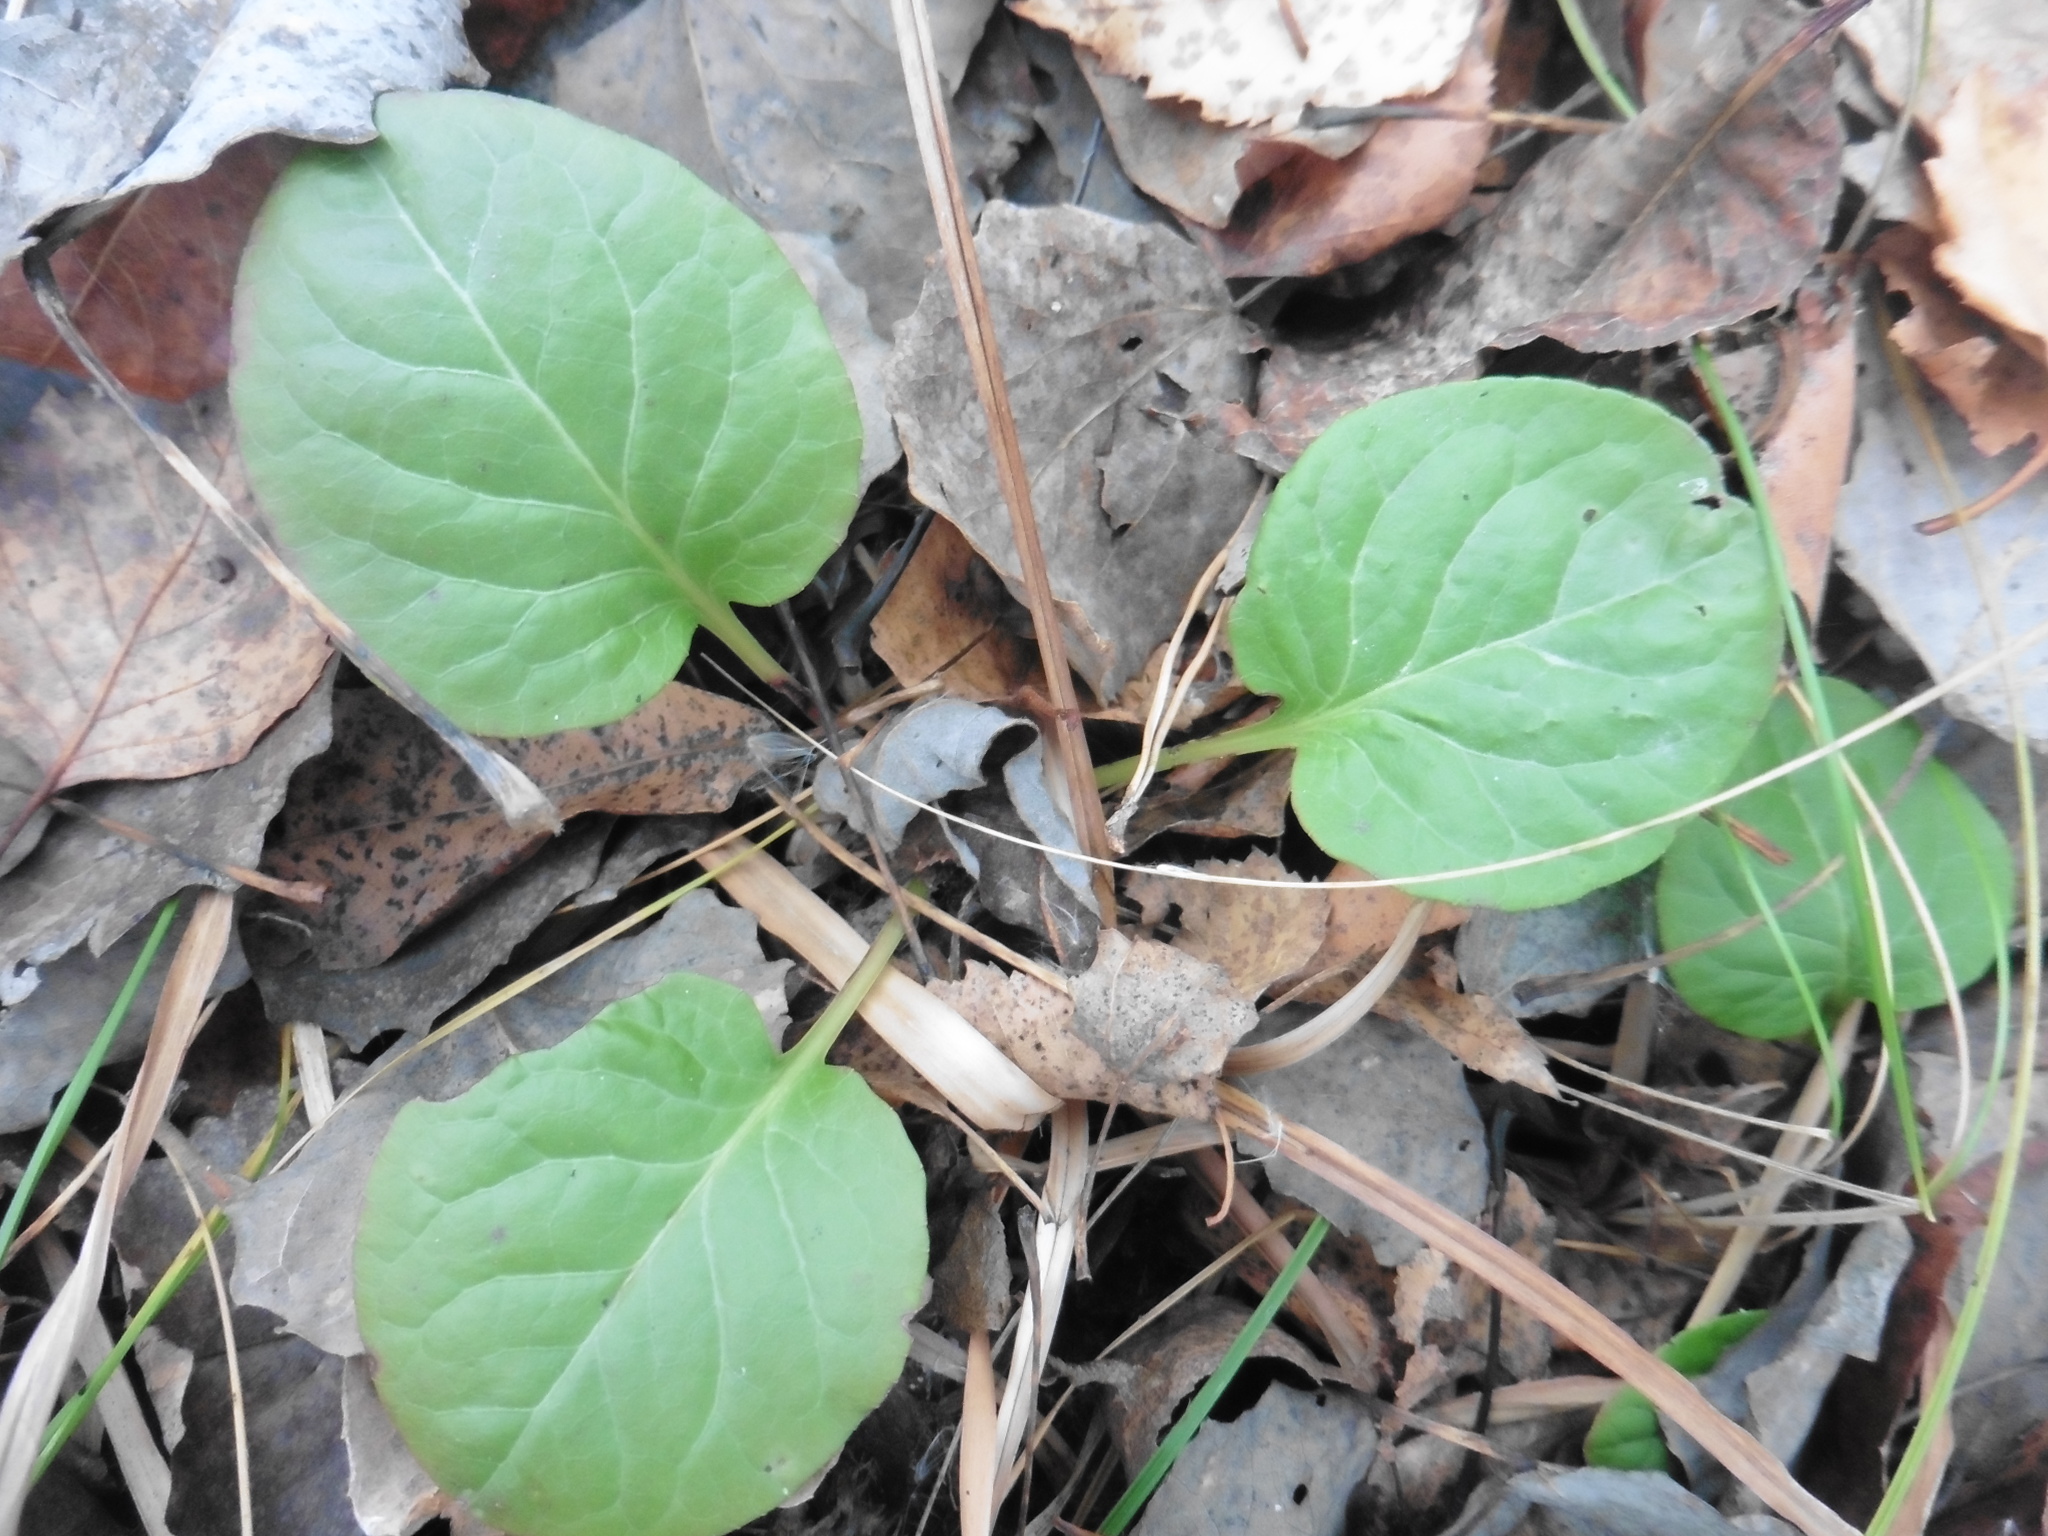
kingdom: Plantae
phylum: Tracheophyta
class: Magnoliopsida
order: Ericales
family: Ericaceae
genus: Pyrola
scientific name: Pyrola rotundifolia
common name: Round-leaved wintergreen
